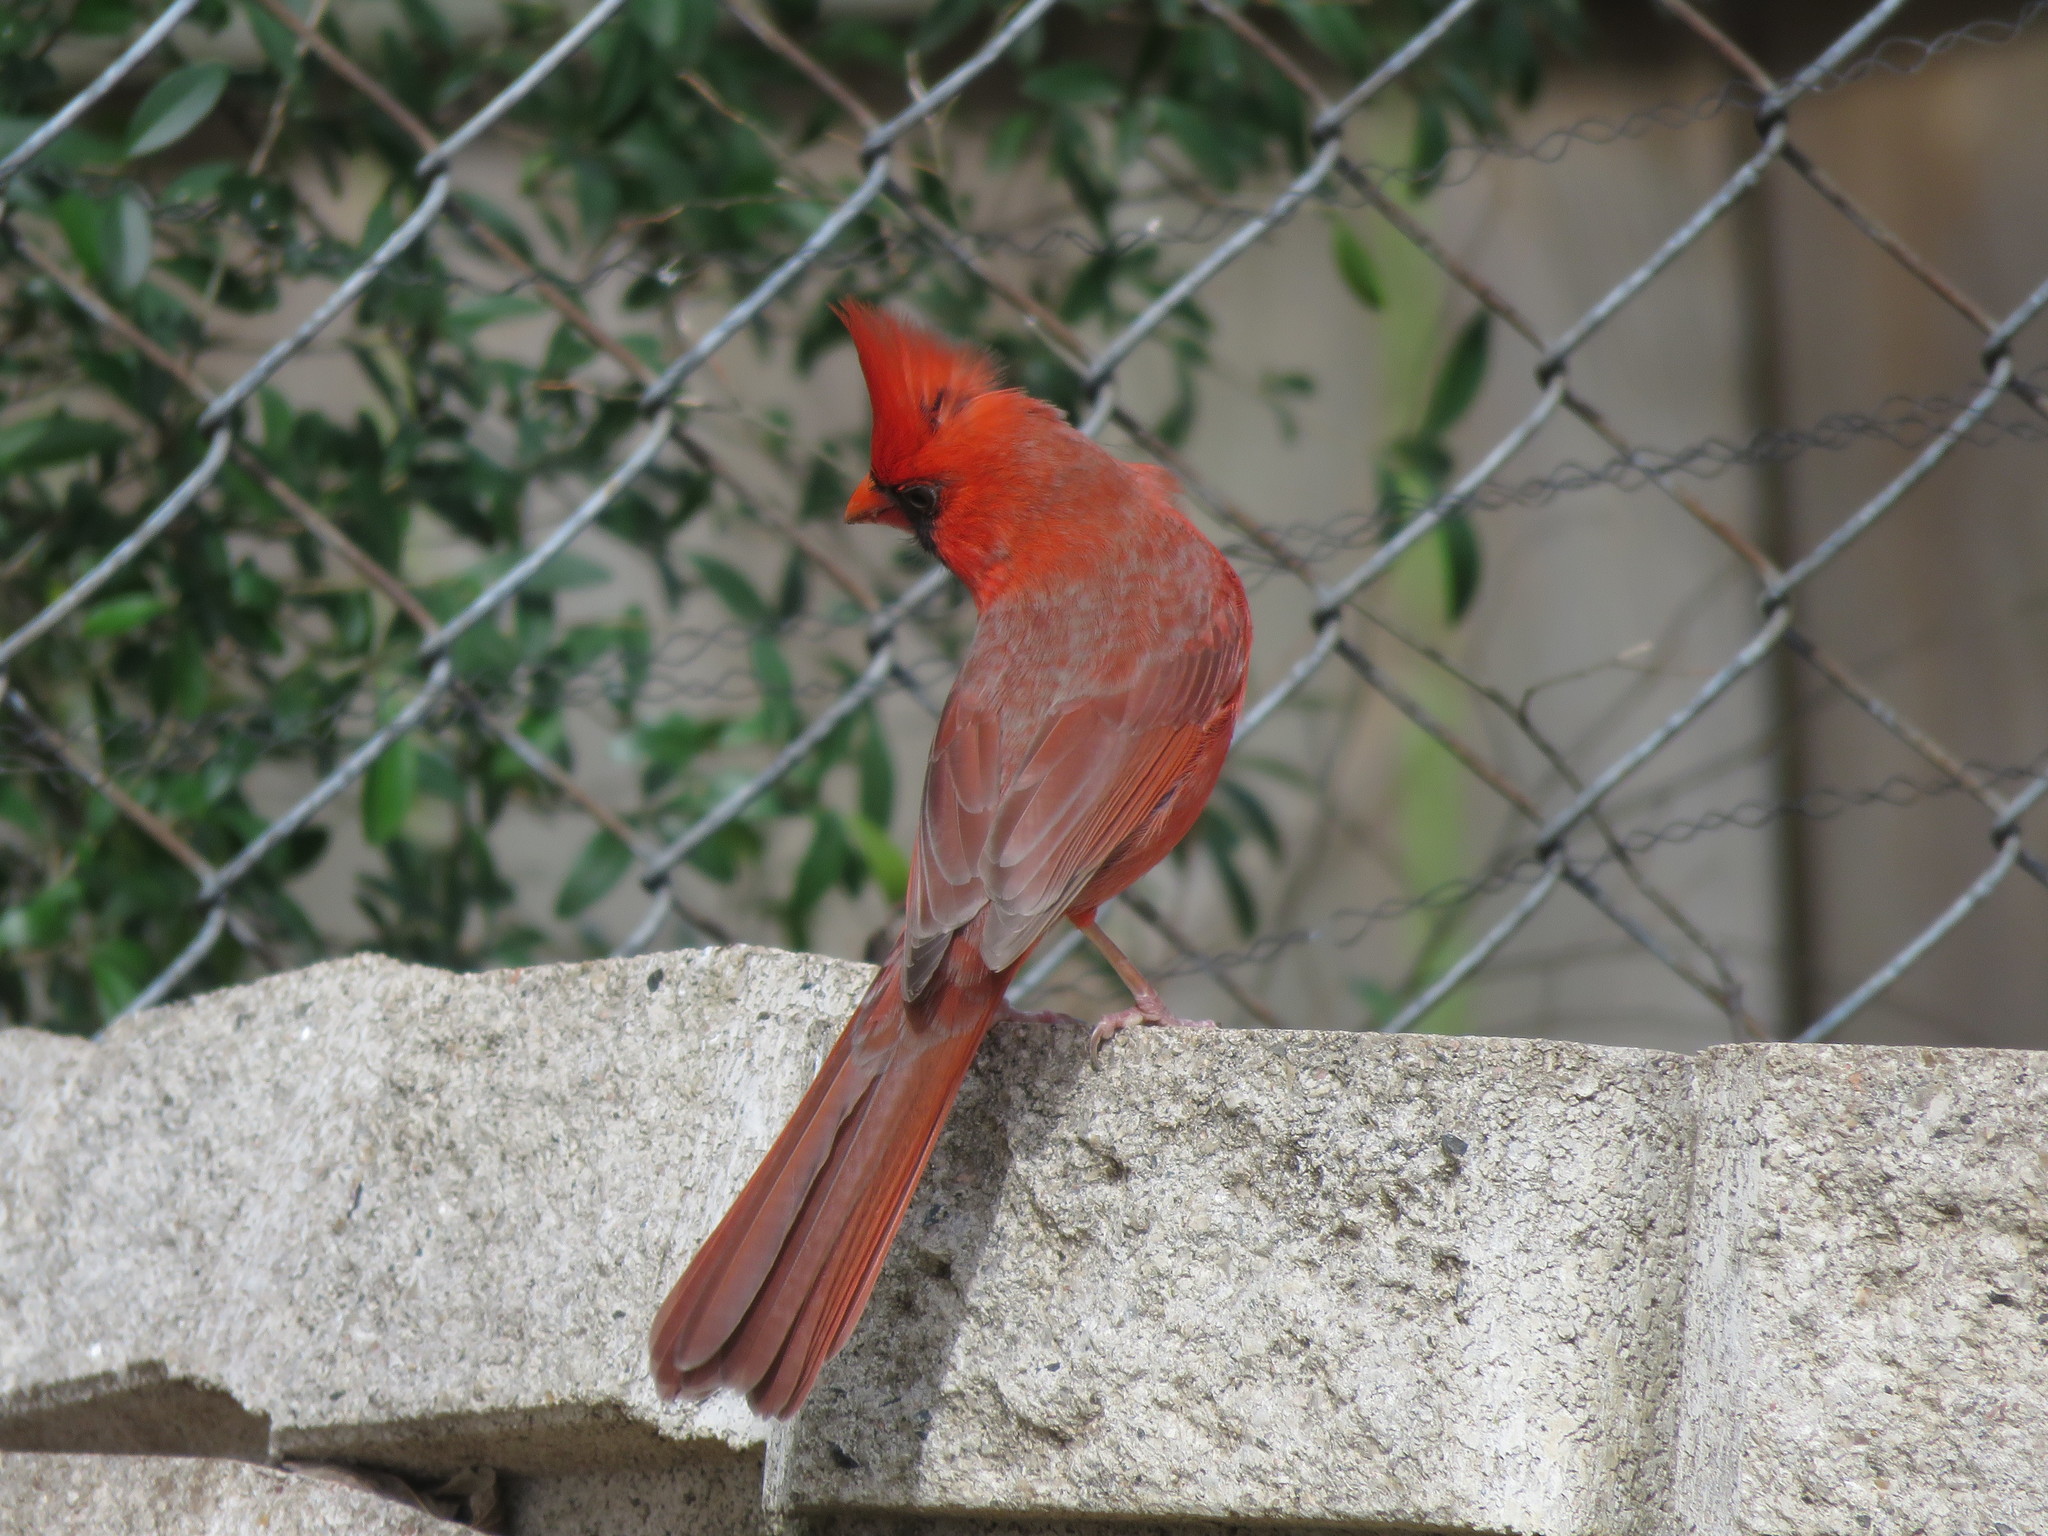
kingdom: Animalia
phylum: Chordata
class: Aves
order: Passeriformes
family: Cardinalidae
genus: Cardinalis
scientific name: Cardinalis cardinalis
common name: Northern cardinal
